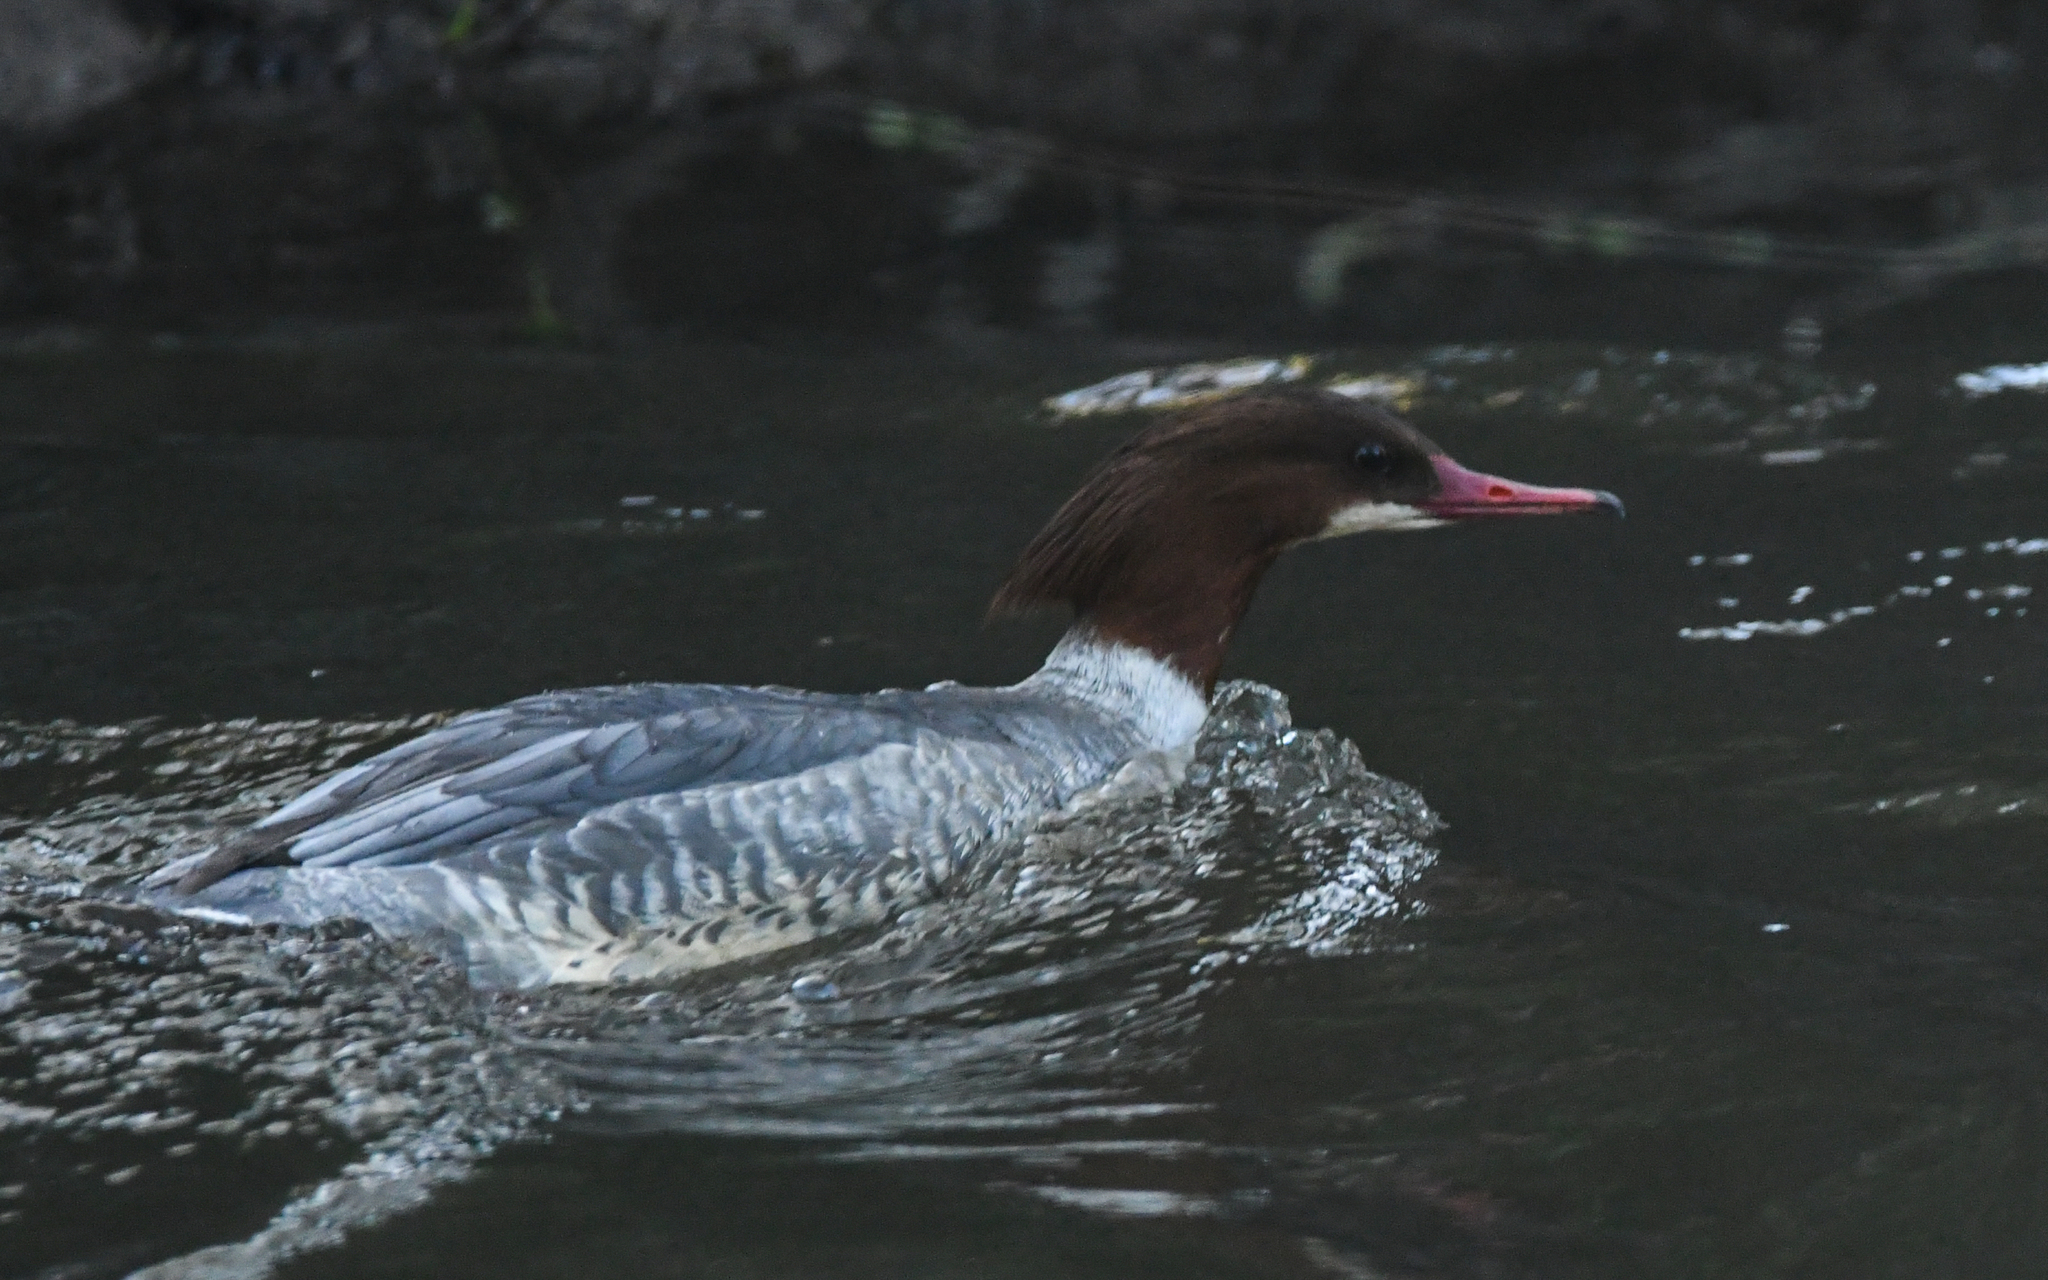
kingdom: Animalia
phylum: Chordata
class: Aves
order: Anseriformes
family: Anatidae
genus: Mergus
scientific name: Mergus merganser
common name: Common merganser
